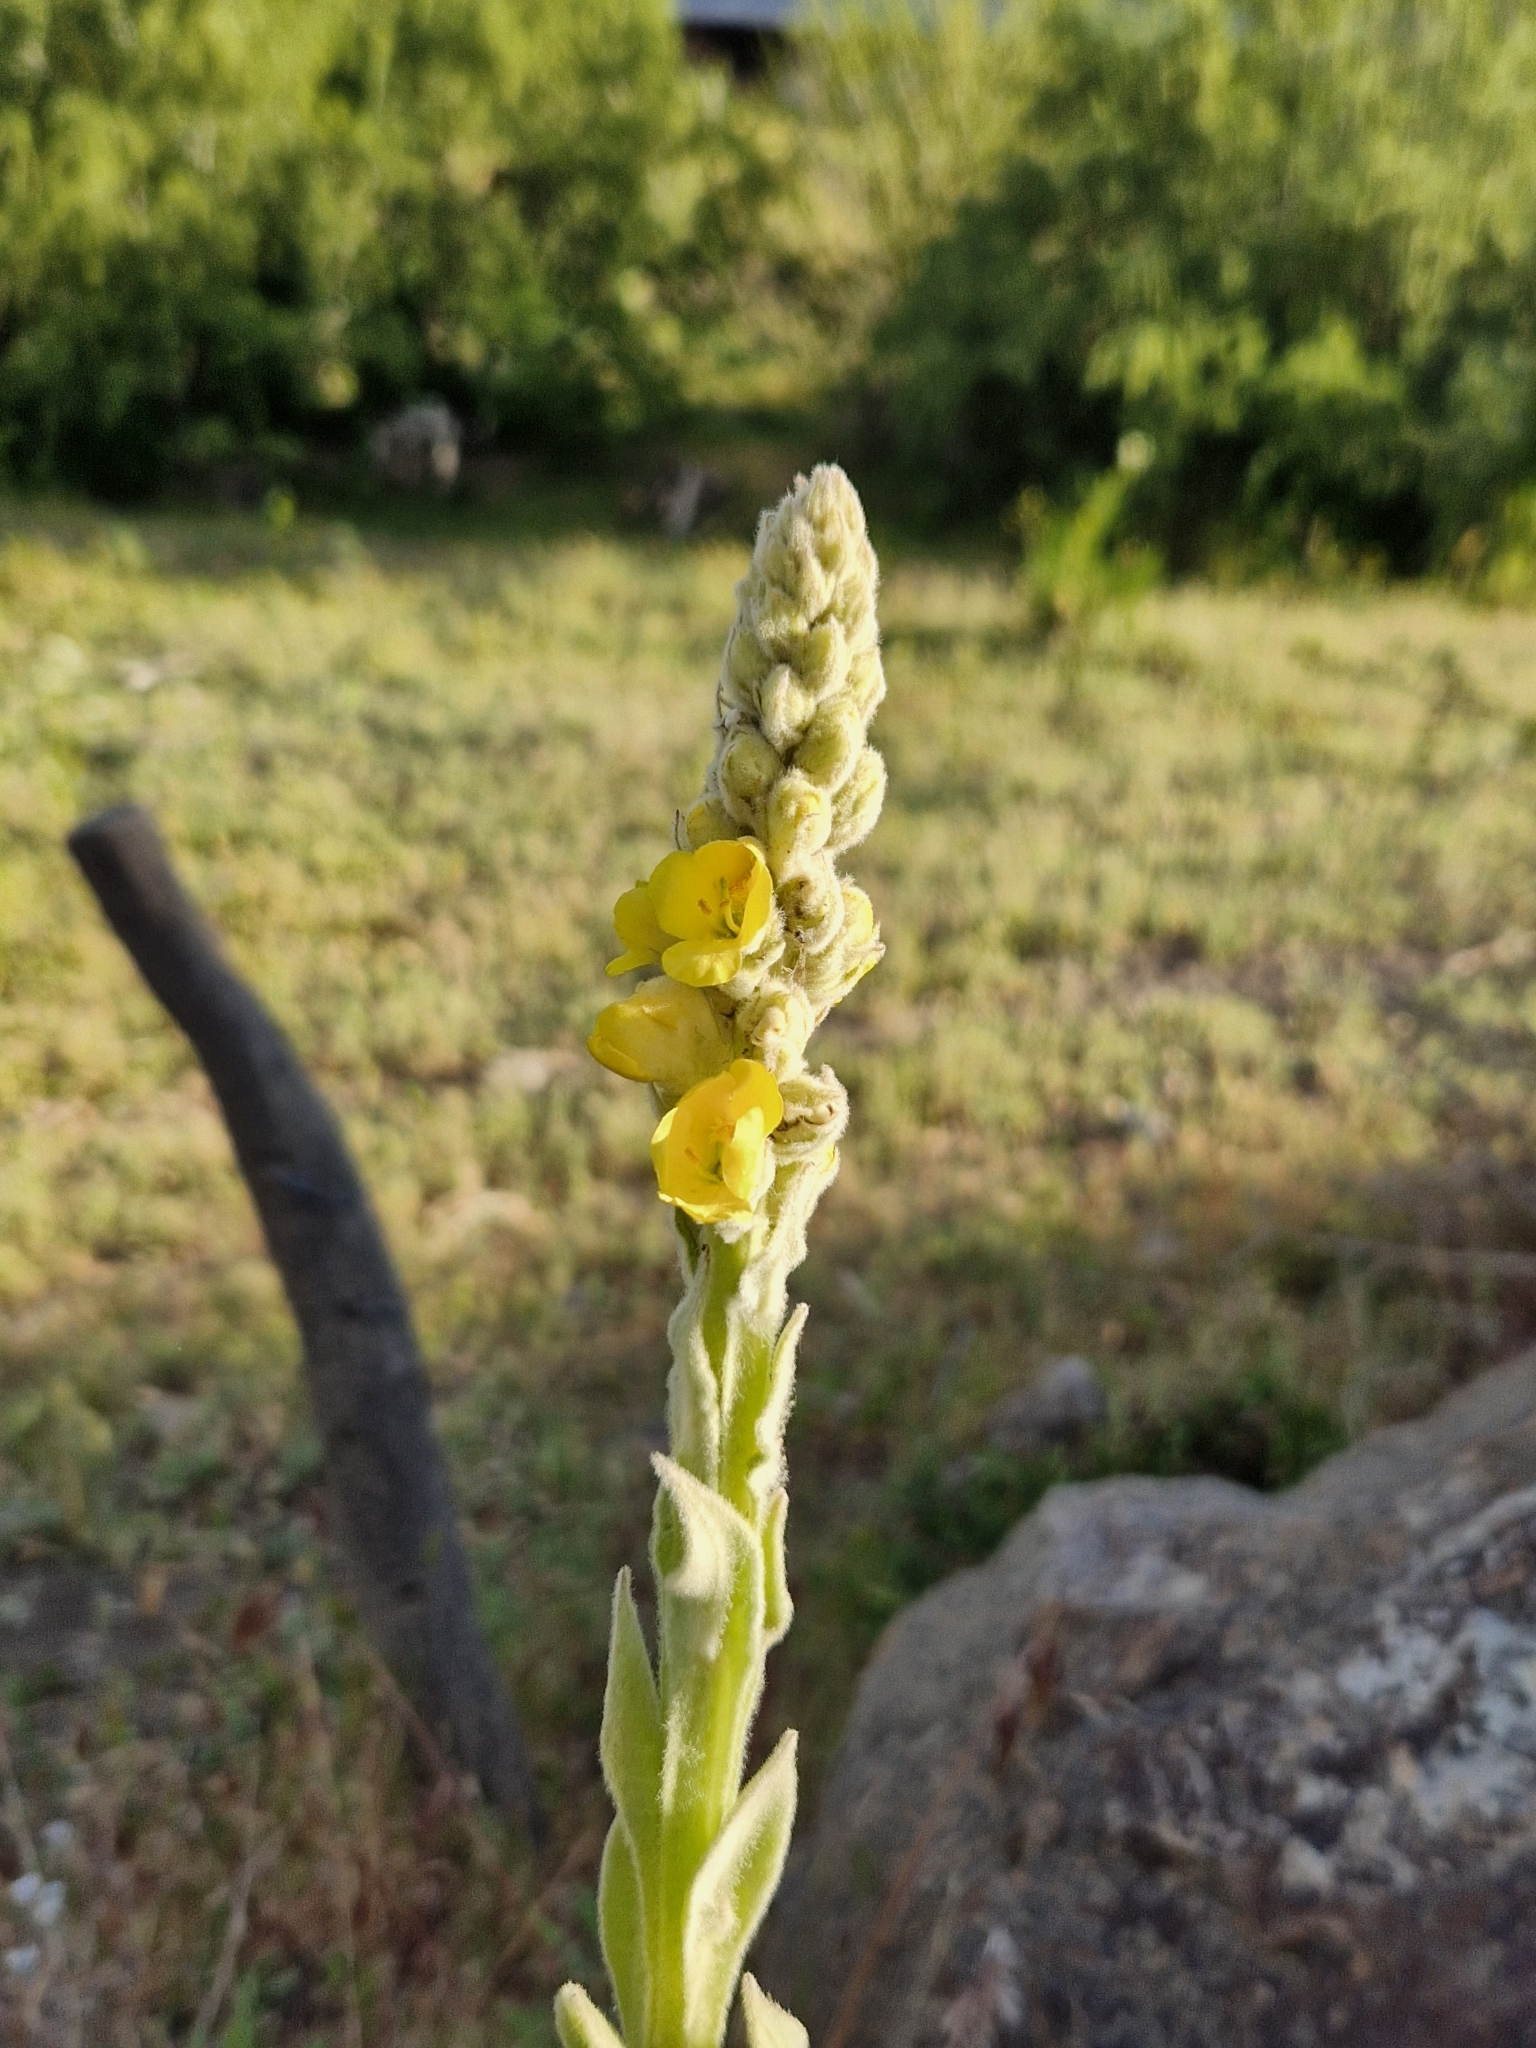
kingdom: Plantae
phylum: Tracheophyta
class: Magnoliopsida
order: Lamiales
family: Scrophulariaceae
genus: Verbascum
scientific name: Verbascum thapsus
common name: Common mullein
